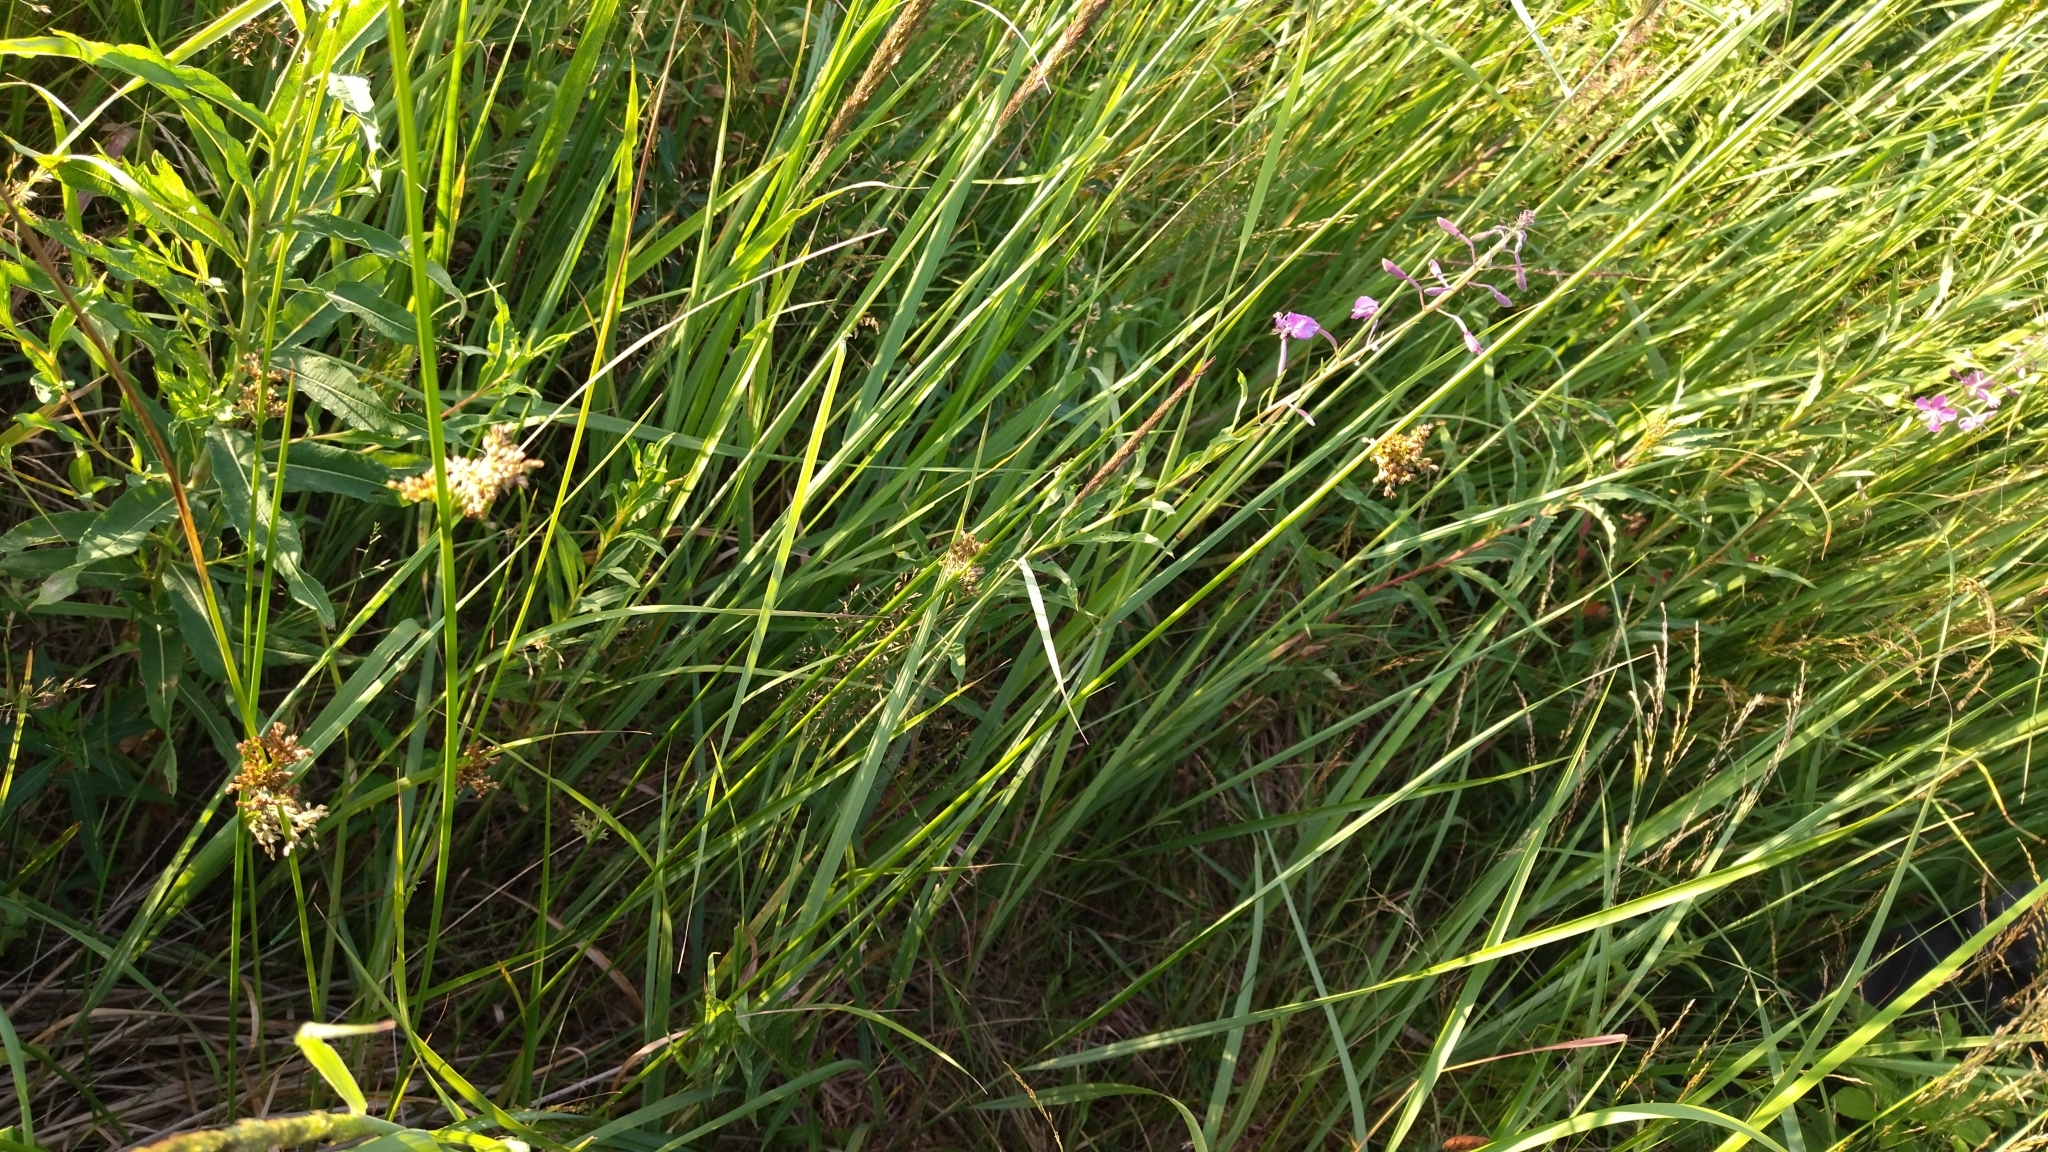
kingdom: Plantae
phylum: Tracheophyta
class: Liliopsida
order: Poales
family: Juncaceae
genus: Juncus
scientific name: Juncus effusus
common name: Soft rush
